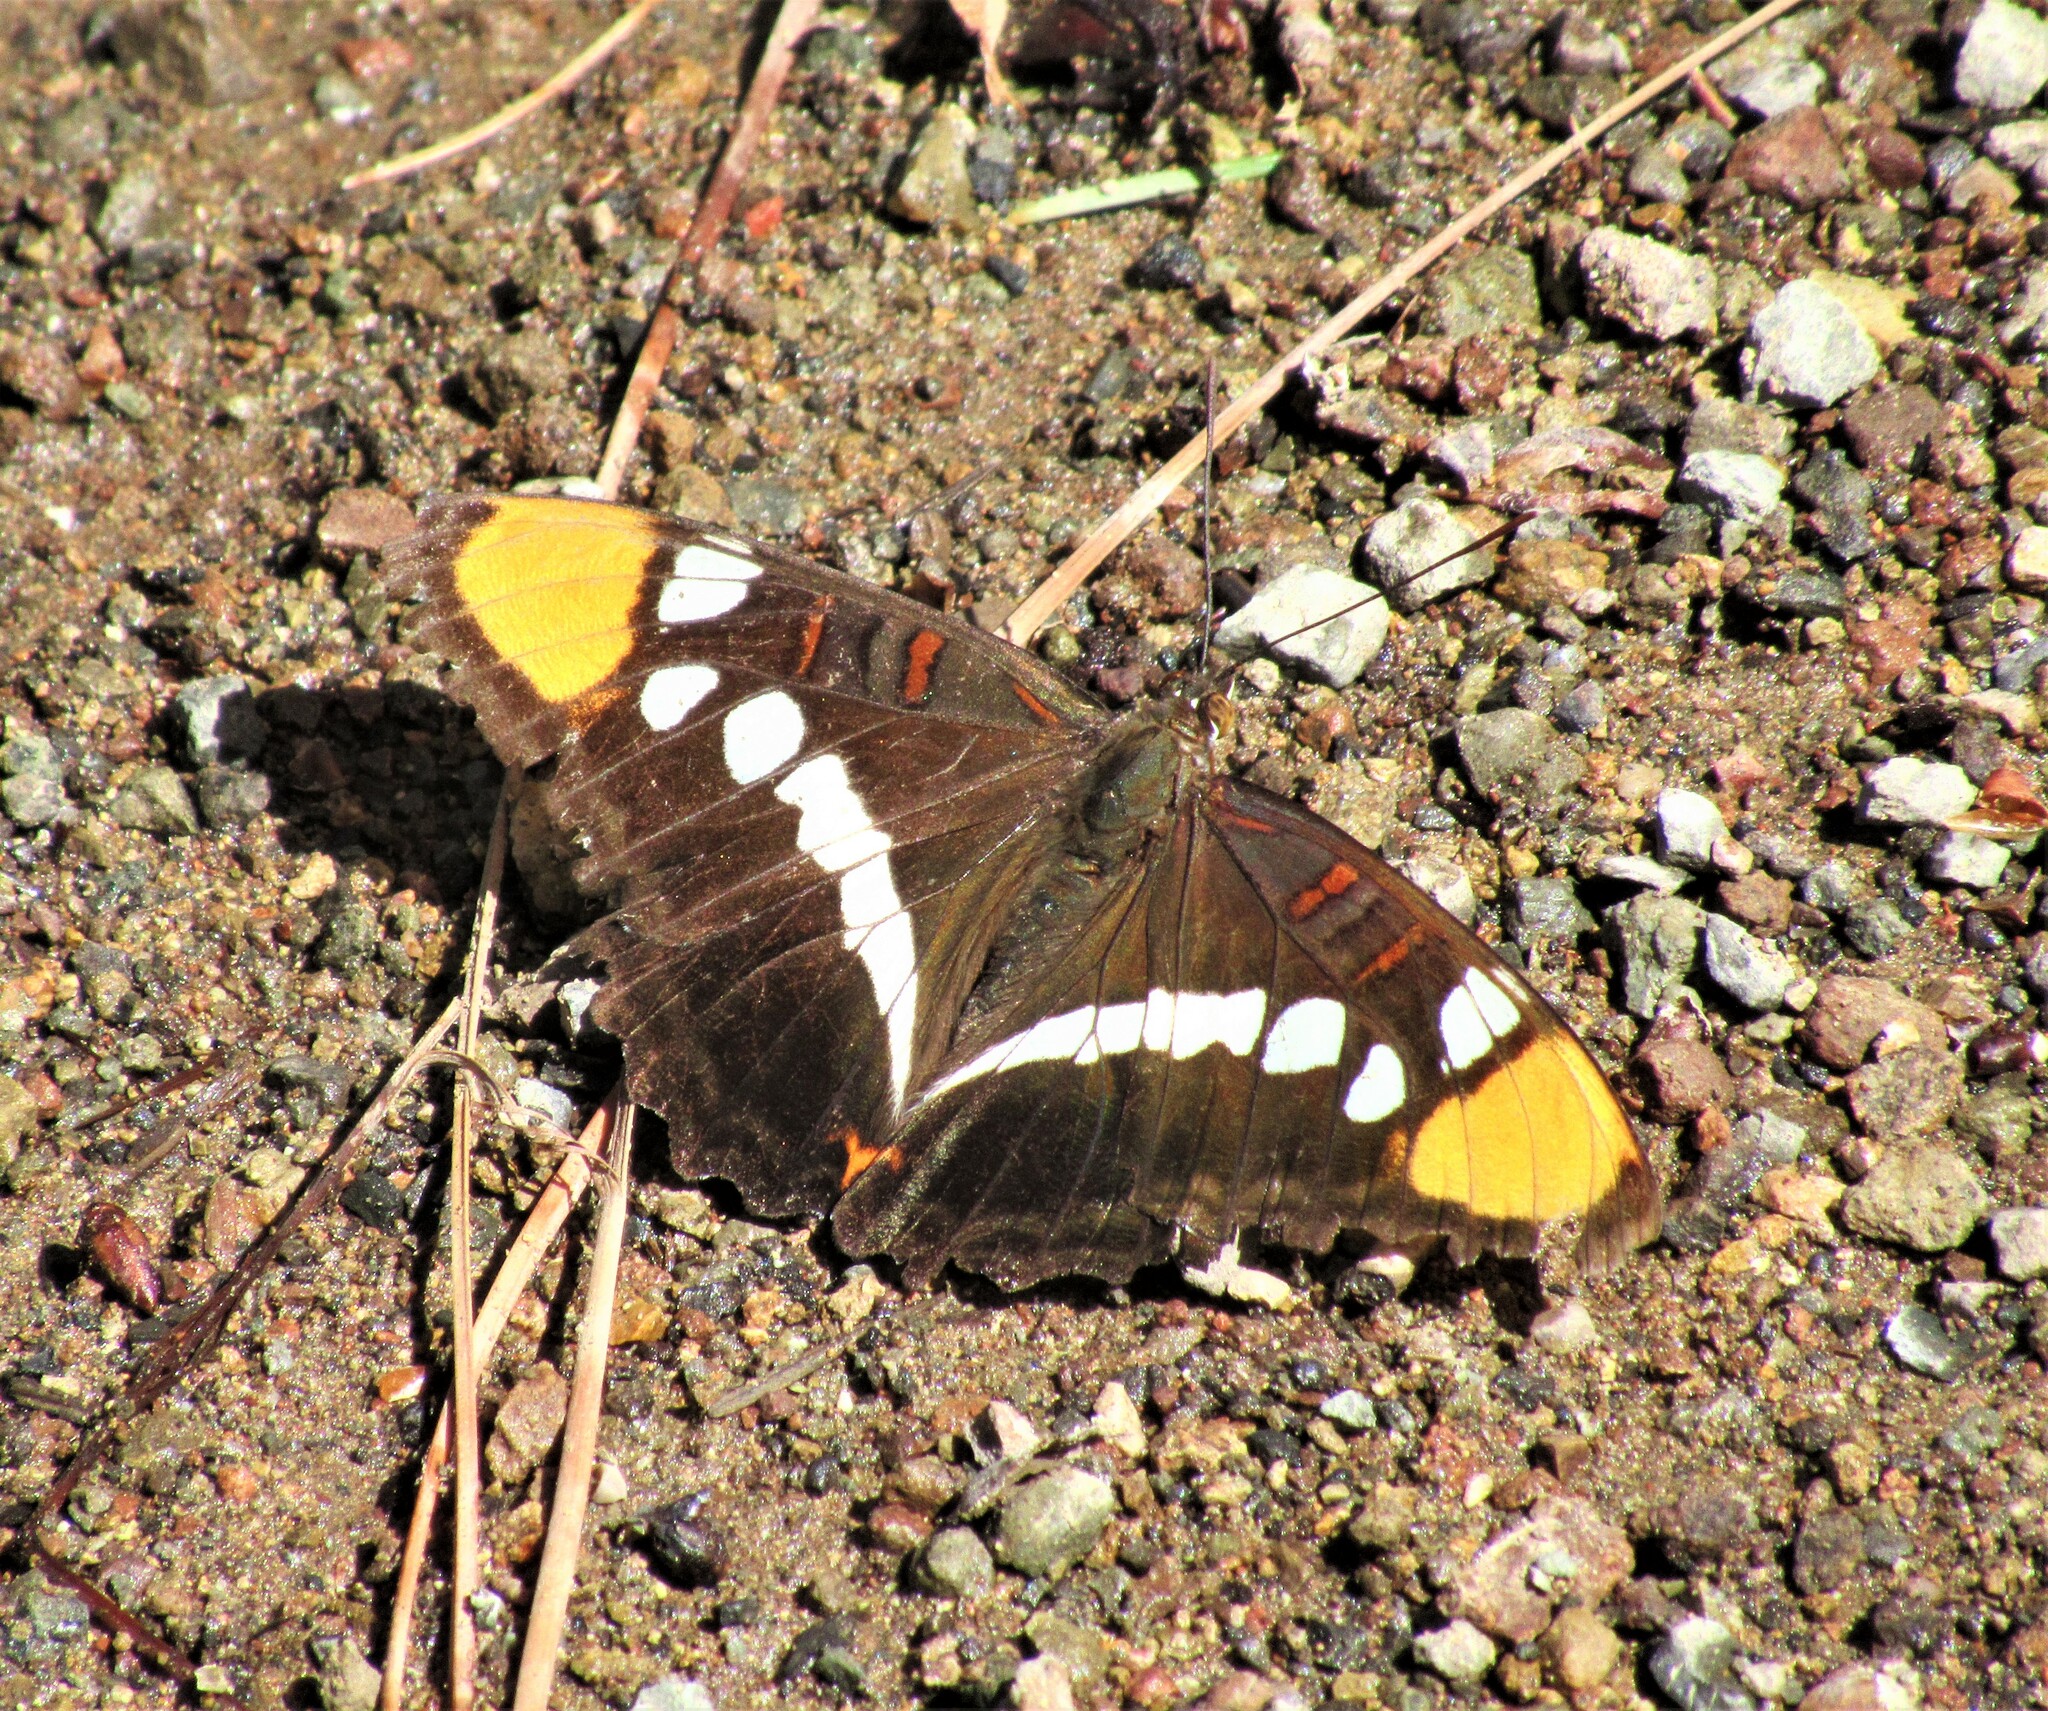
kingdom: Animalia
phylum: Arthropoda
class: Insecta
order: Lepidoptera
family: Nymphalidae
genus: Limenitis
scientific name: Limenitis bredowii
